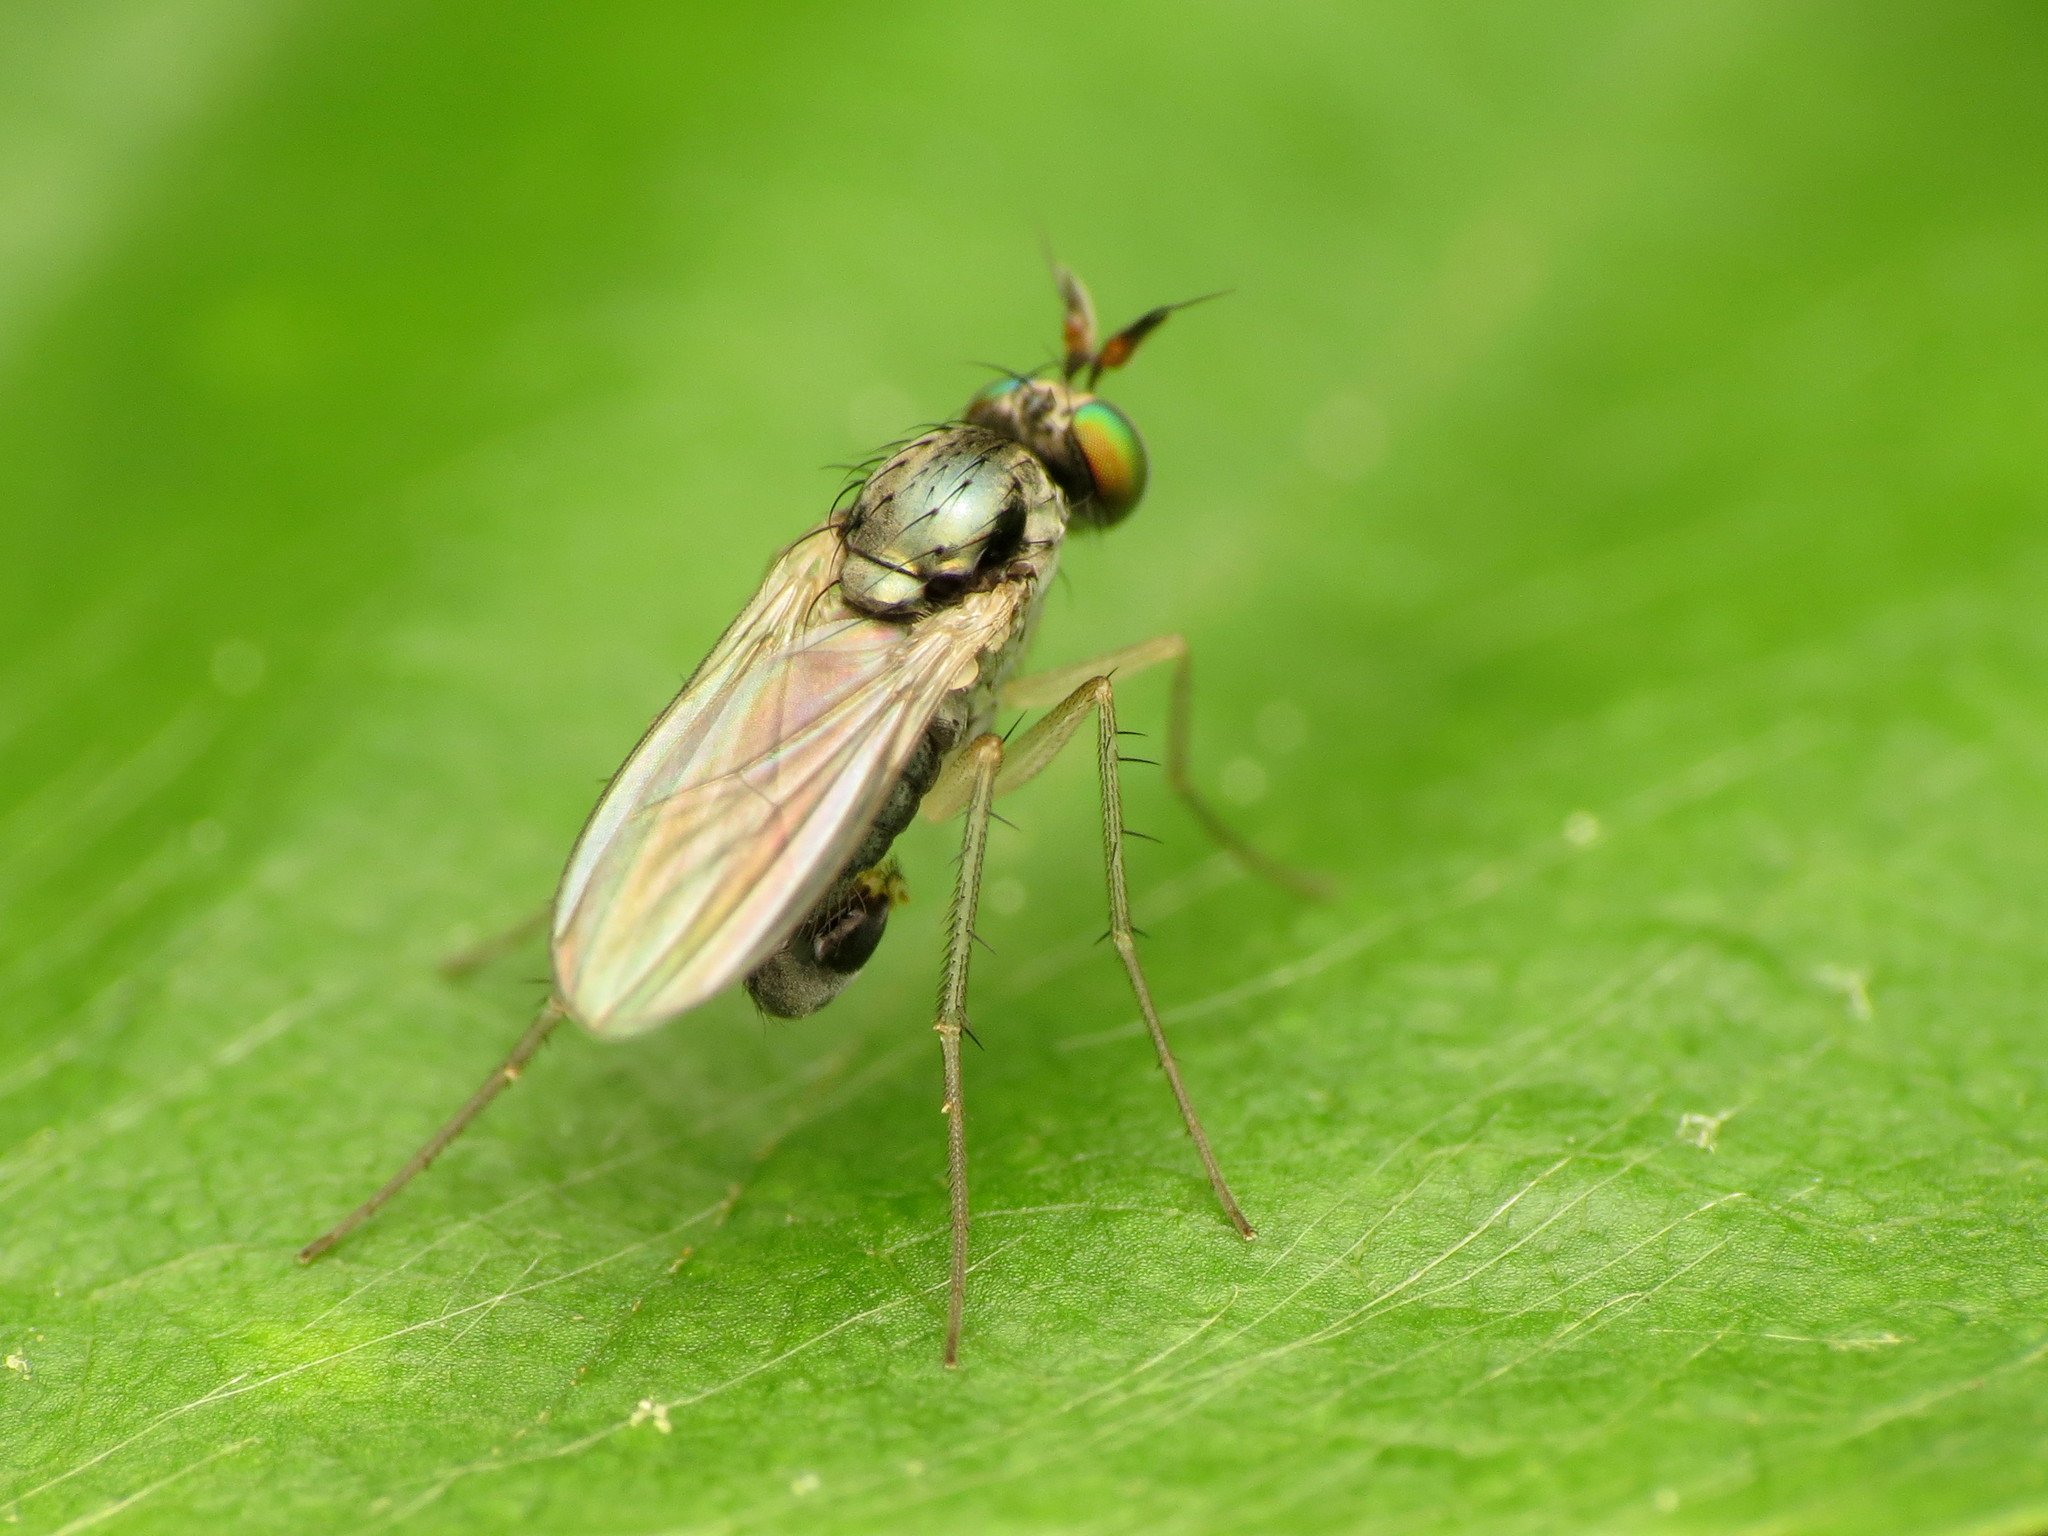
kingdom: Animalia
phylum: Arthropoda
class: Insecta
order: Diptera
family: Dolichopodidae
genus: Gymnopternus
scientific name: Gymnopternus opacus
